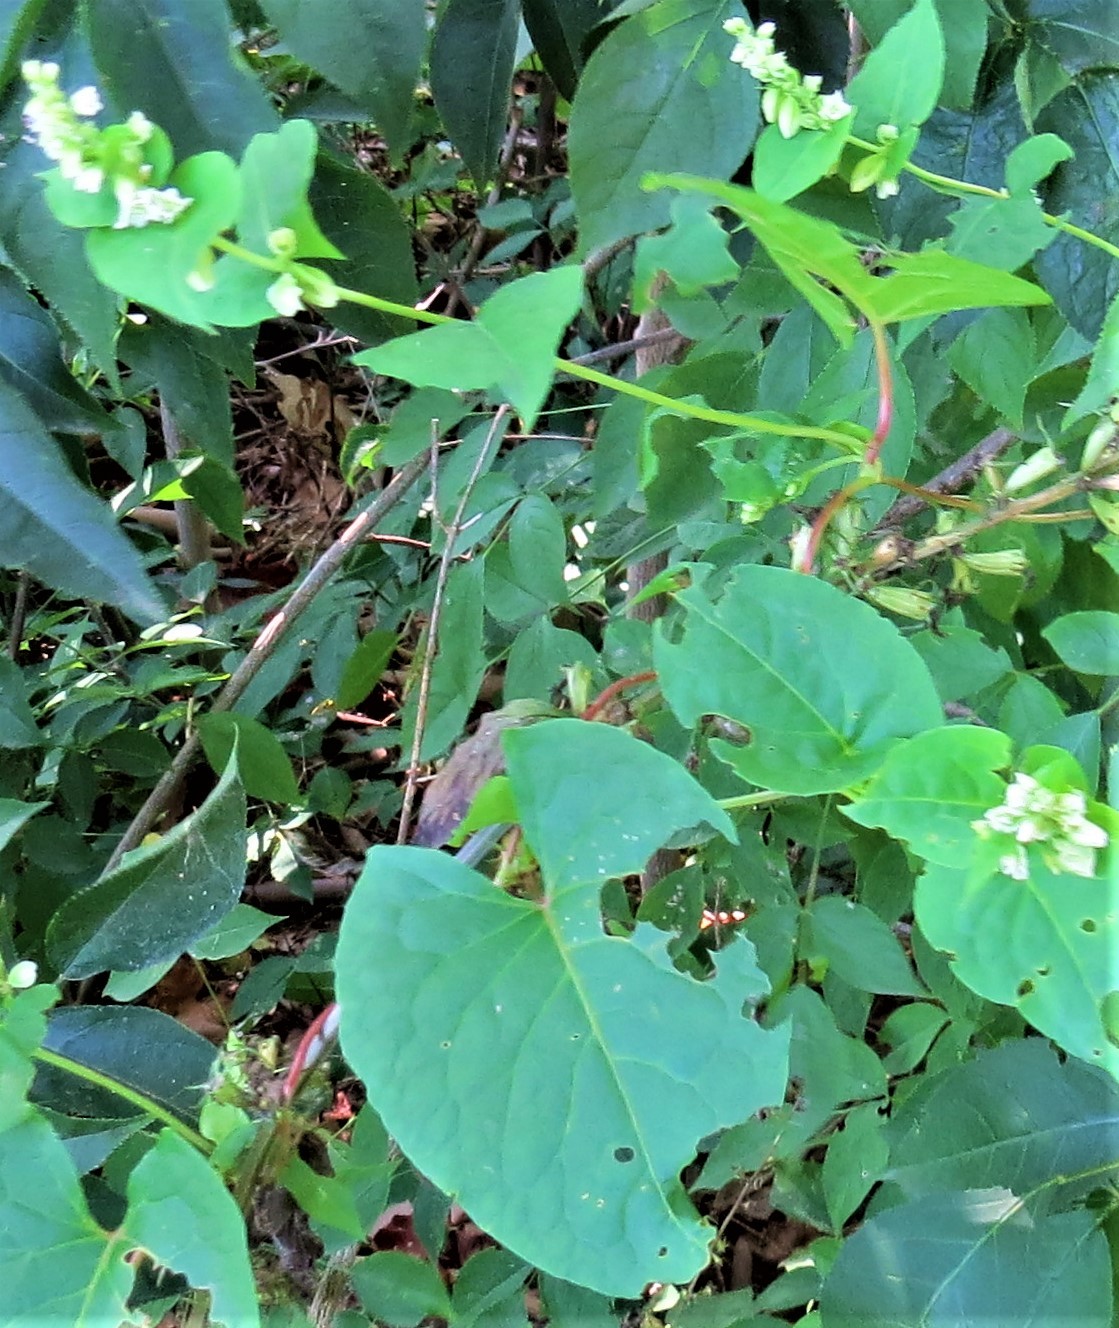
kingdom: Plantae
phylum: Tracheophyta
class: Magnoliopsida
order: Caryophyllales
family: Polygonaceae
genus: Fallopia
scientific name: Fallopia scandens
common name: Climbing false buckwheat
